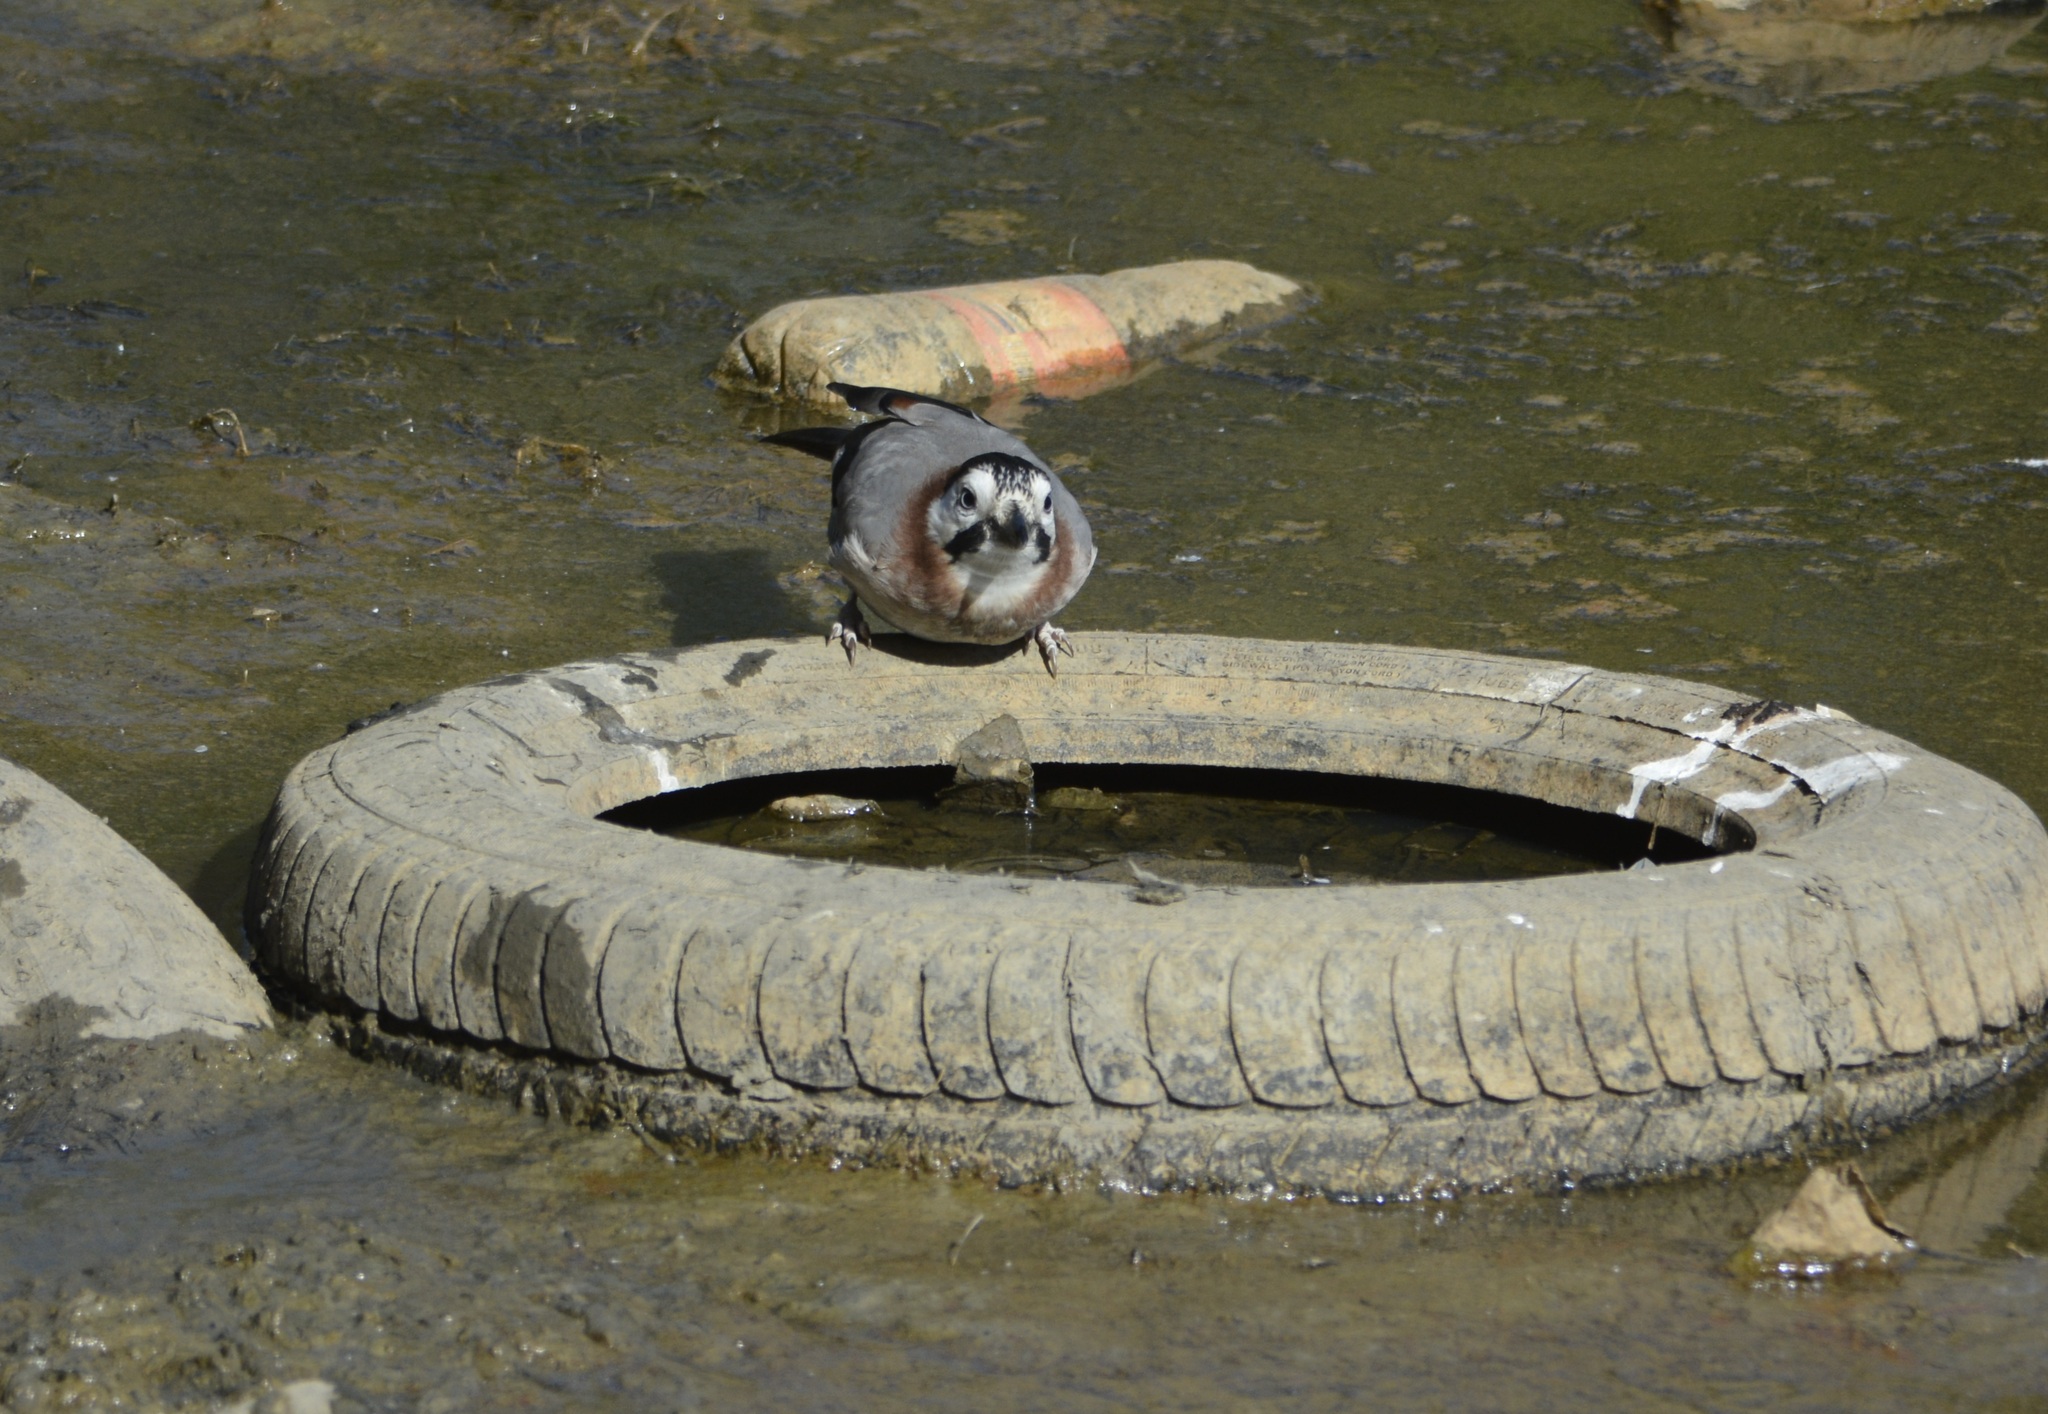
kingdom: Animalia
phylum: Chordata
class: Aves
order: Passeriformes
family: Corvidae
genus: Garrulus
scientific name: Garrulus glandarius
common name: Eurasian jay
